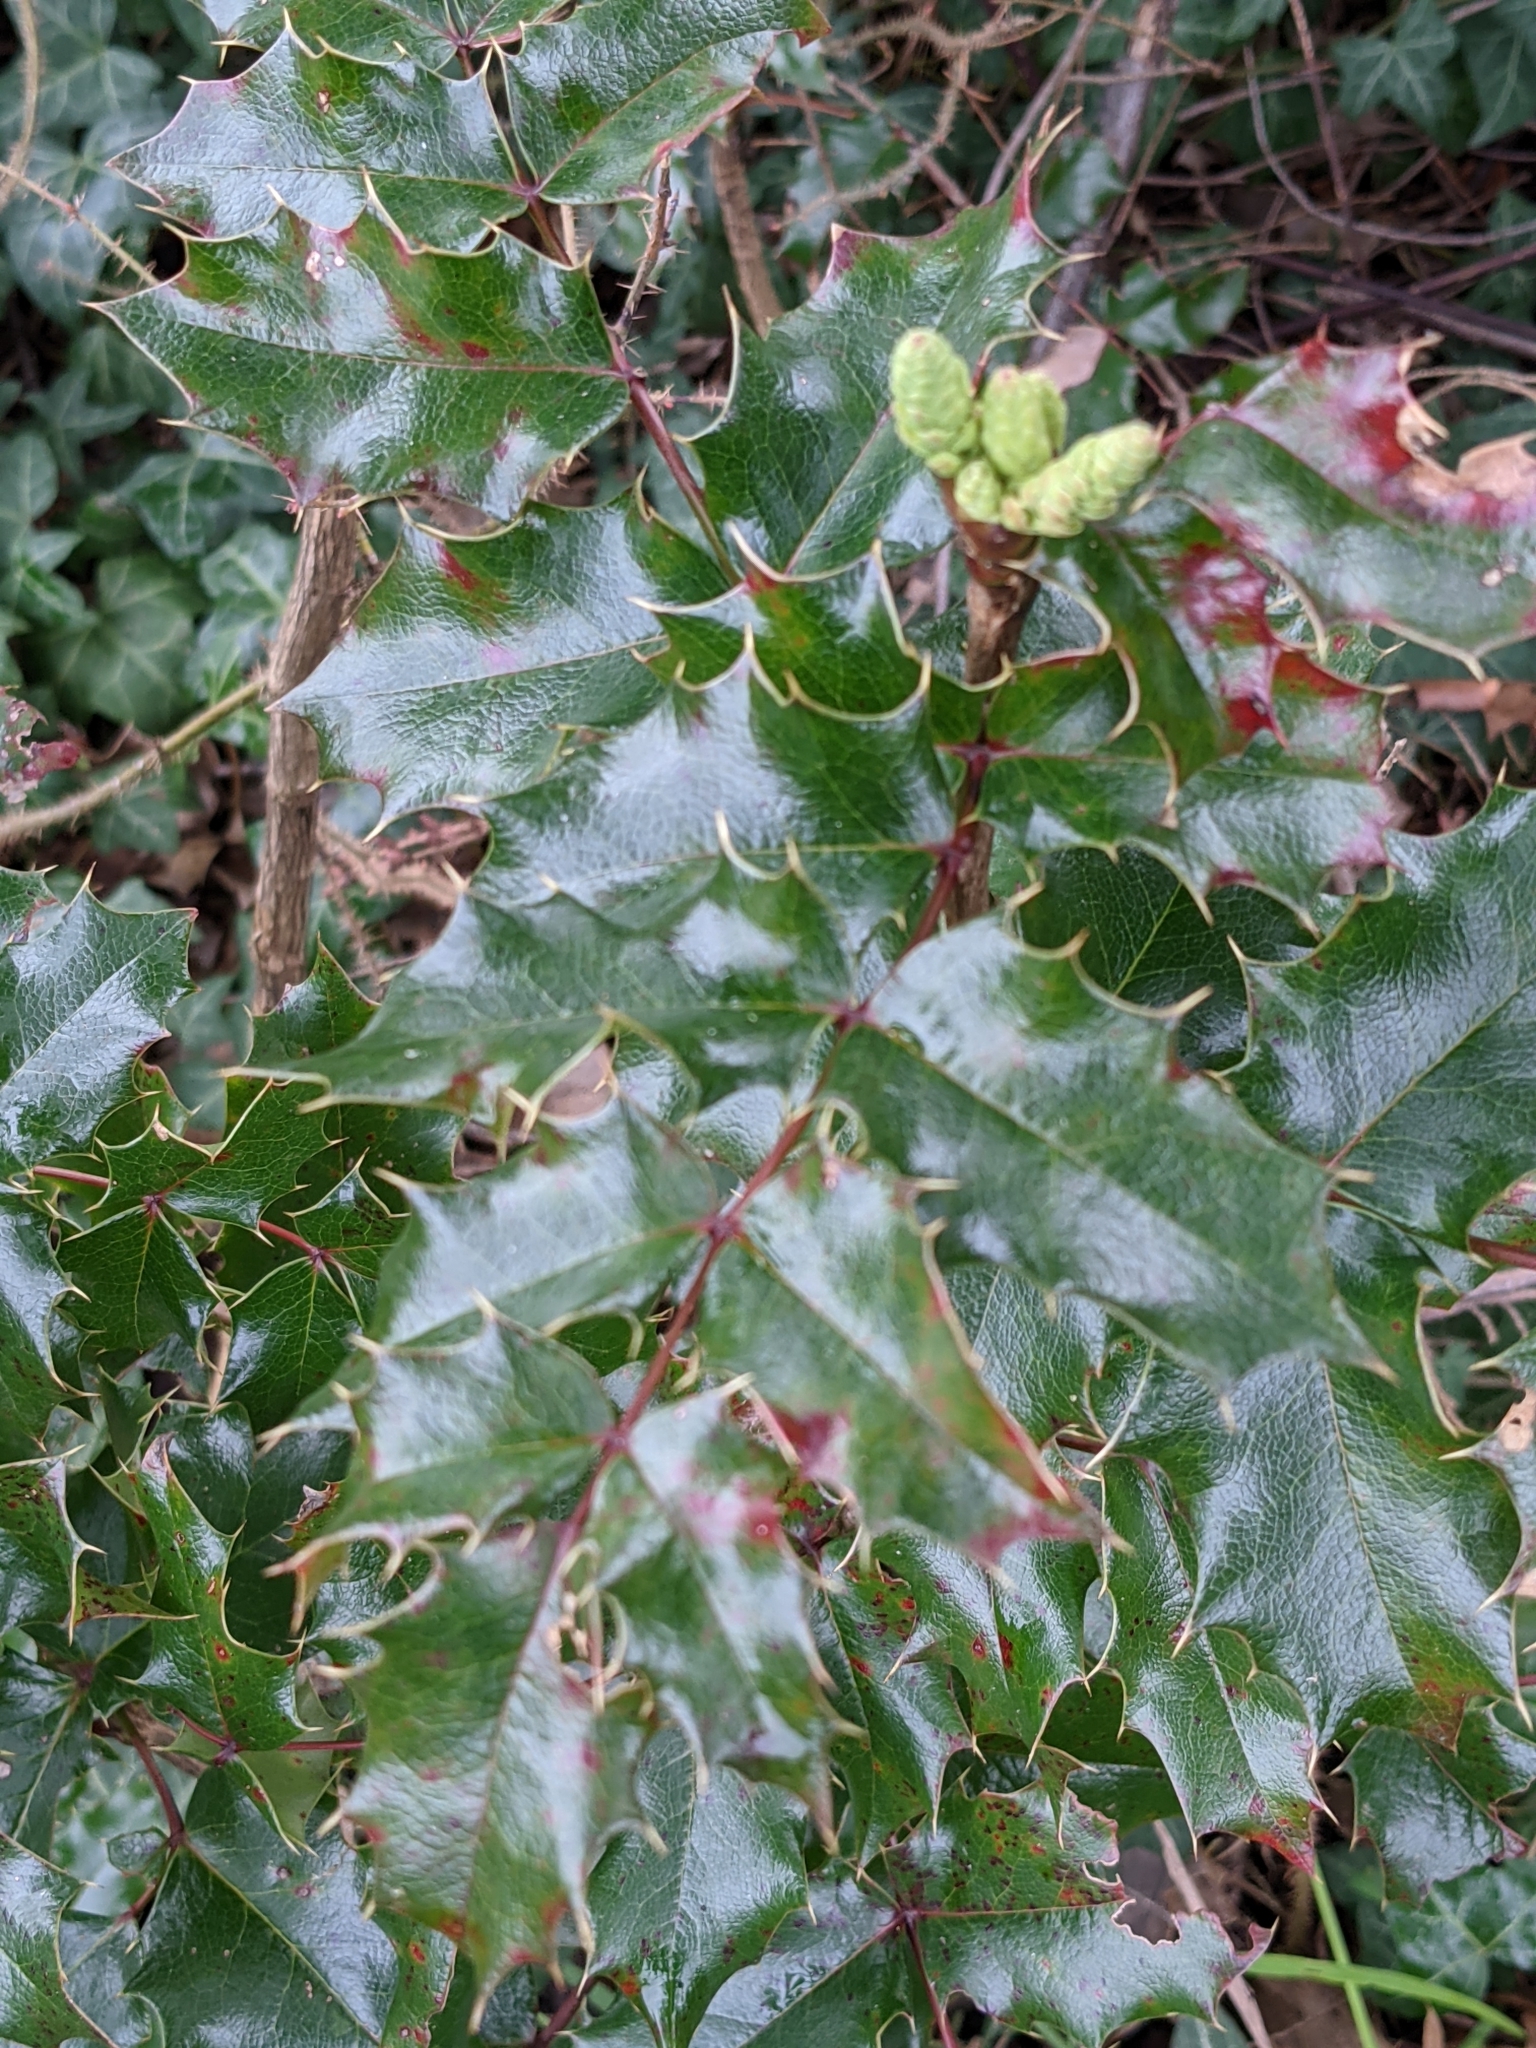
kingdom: Plantae
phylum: Tracheophyta
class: Magnoliopsida
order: Ranunculales
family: Berberidaceae
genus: Mahonia
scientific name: Mahonia aquifolium
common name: Oregon-grape
